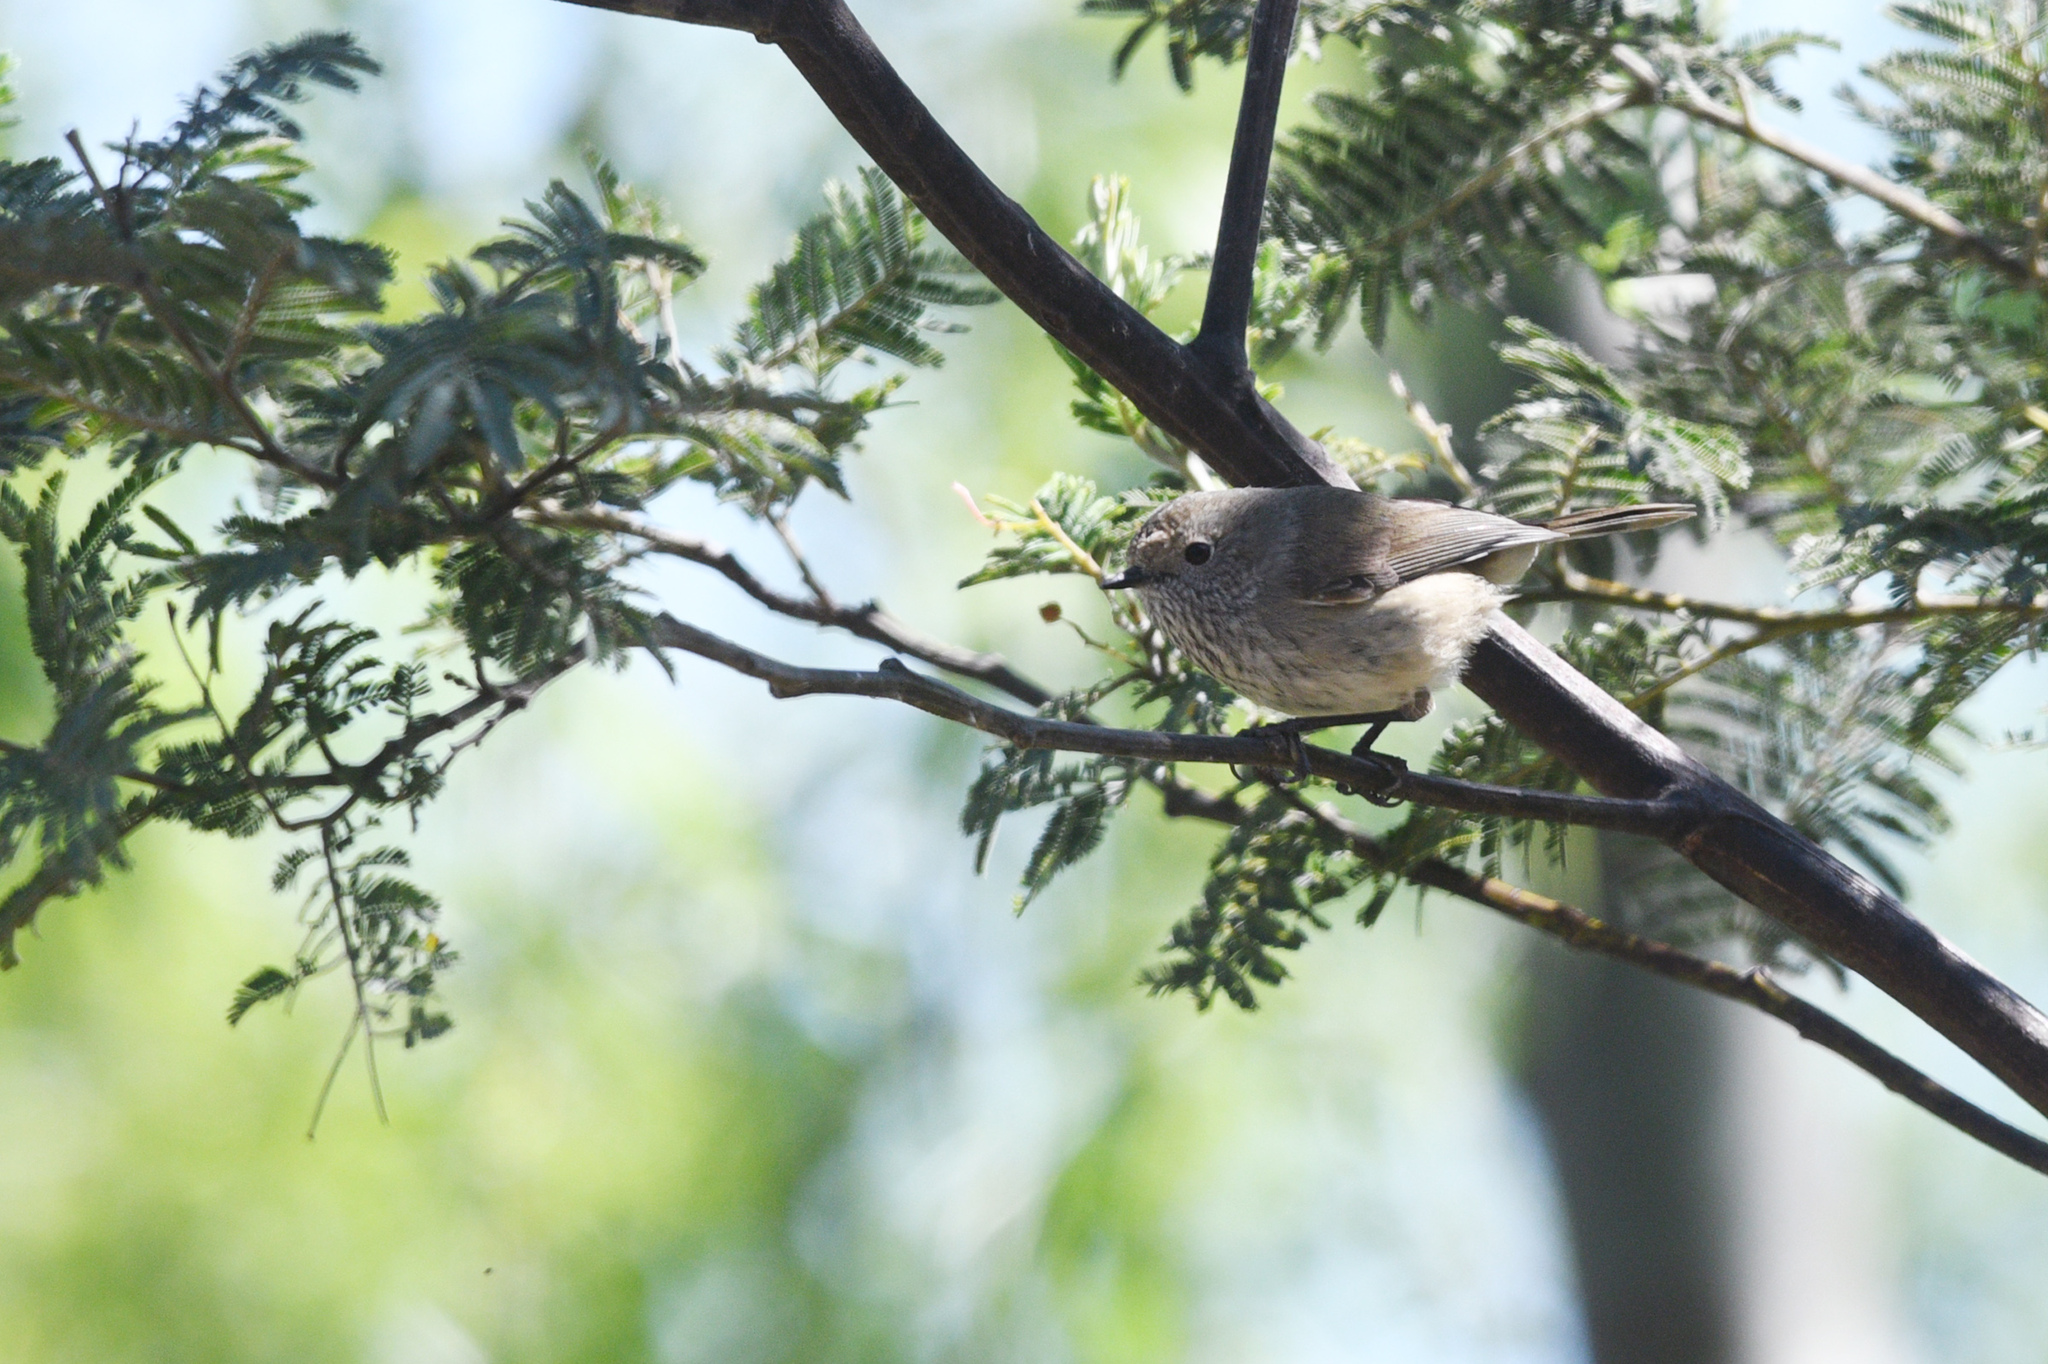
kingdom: Animalia
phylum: Chordata
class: Aves
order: Passeriformes
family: Acanthizidae
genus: Acanthiza
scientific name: Acanthiza pusilla
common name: Brown thornbill
